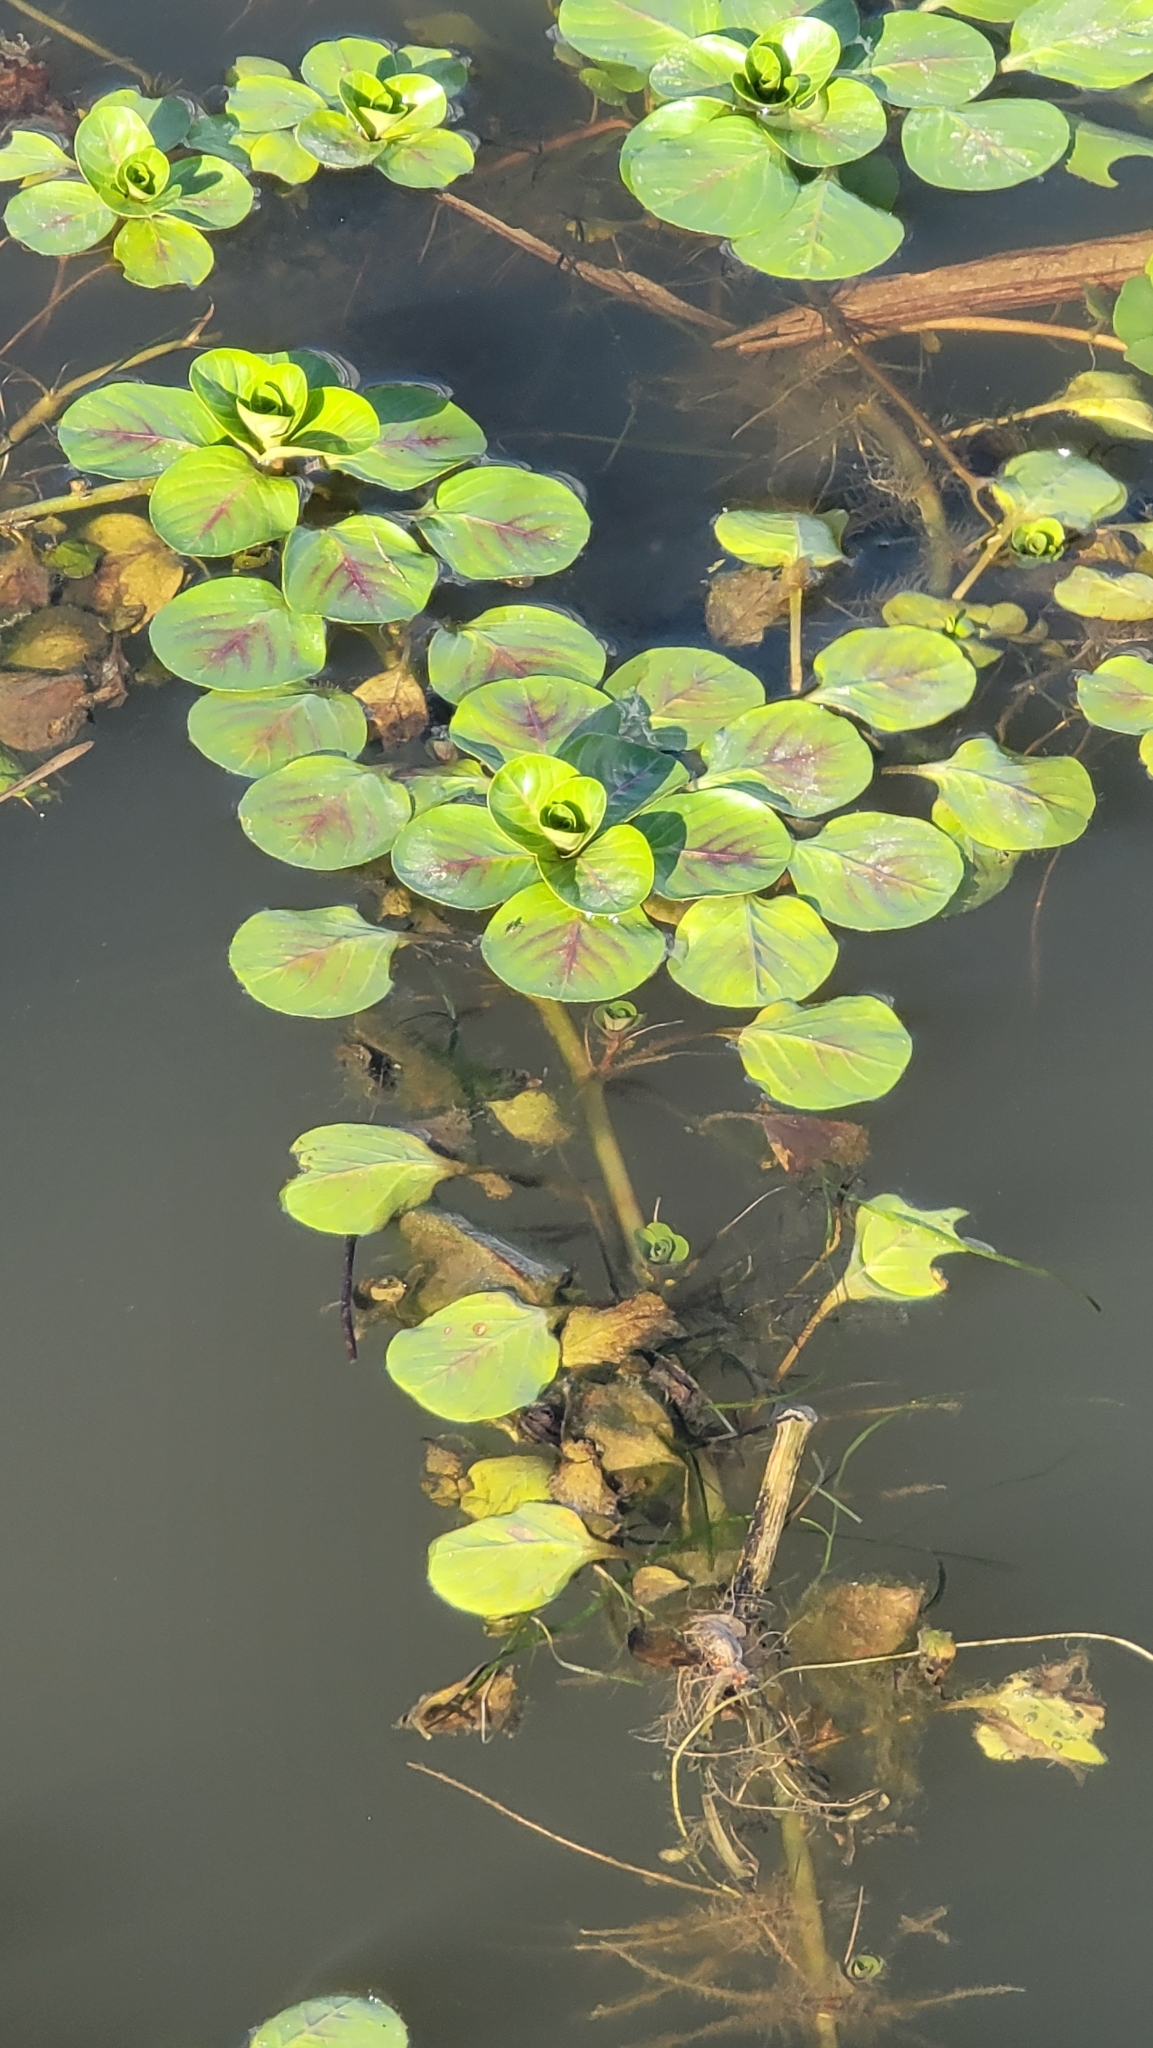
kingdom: Plantae
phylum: Tracheophyta
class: Magnoliopsida
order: Myrtales
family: Onagraceae
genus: Ludwigia
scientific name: Ludwigia peploides
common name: Floating primrose-willow
